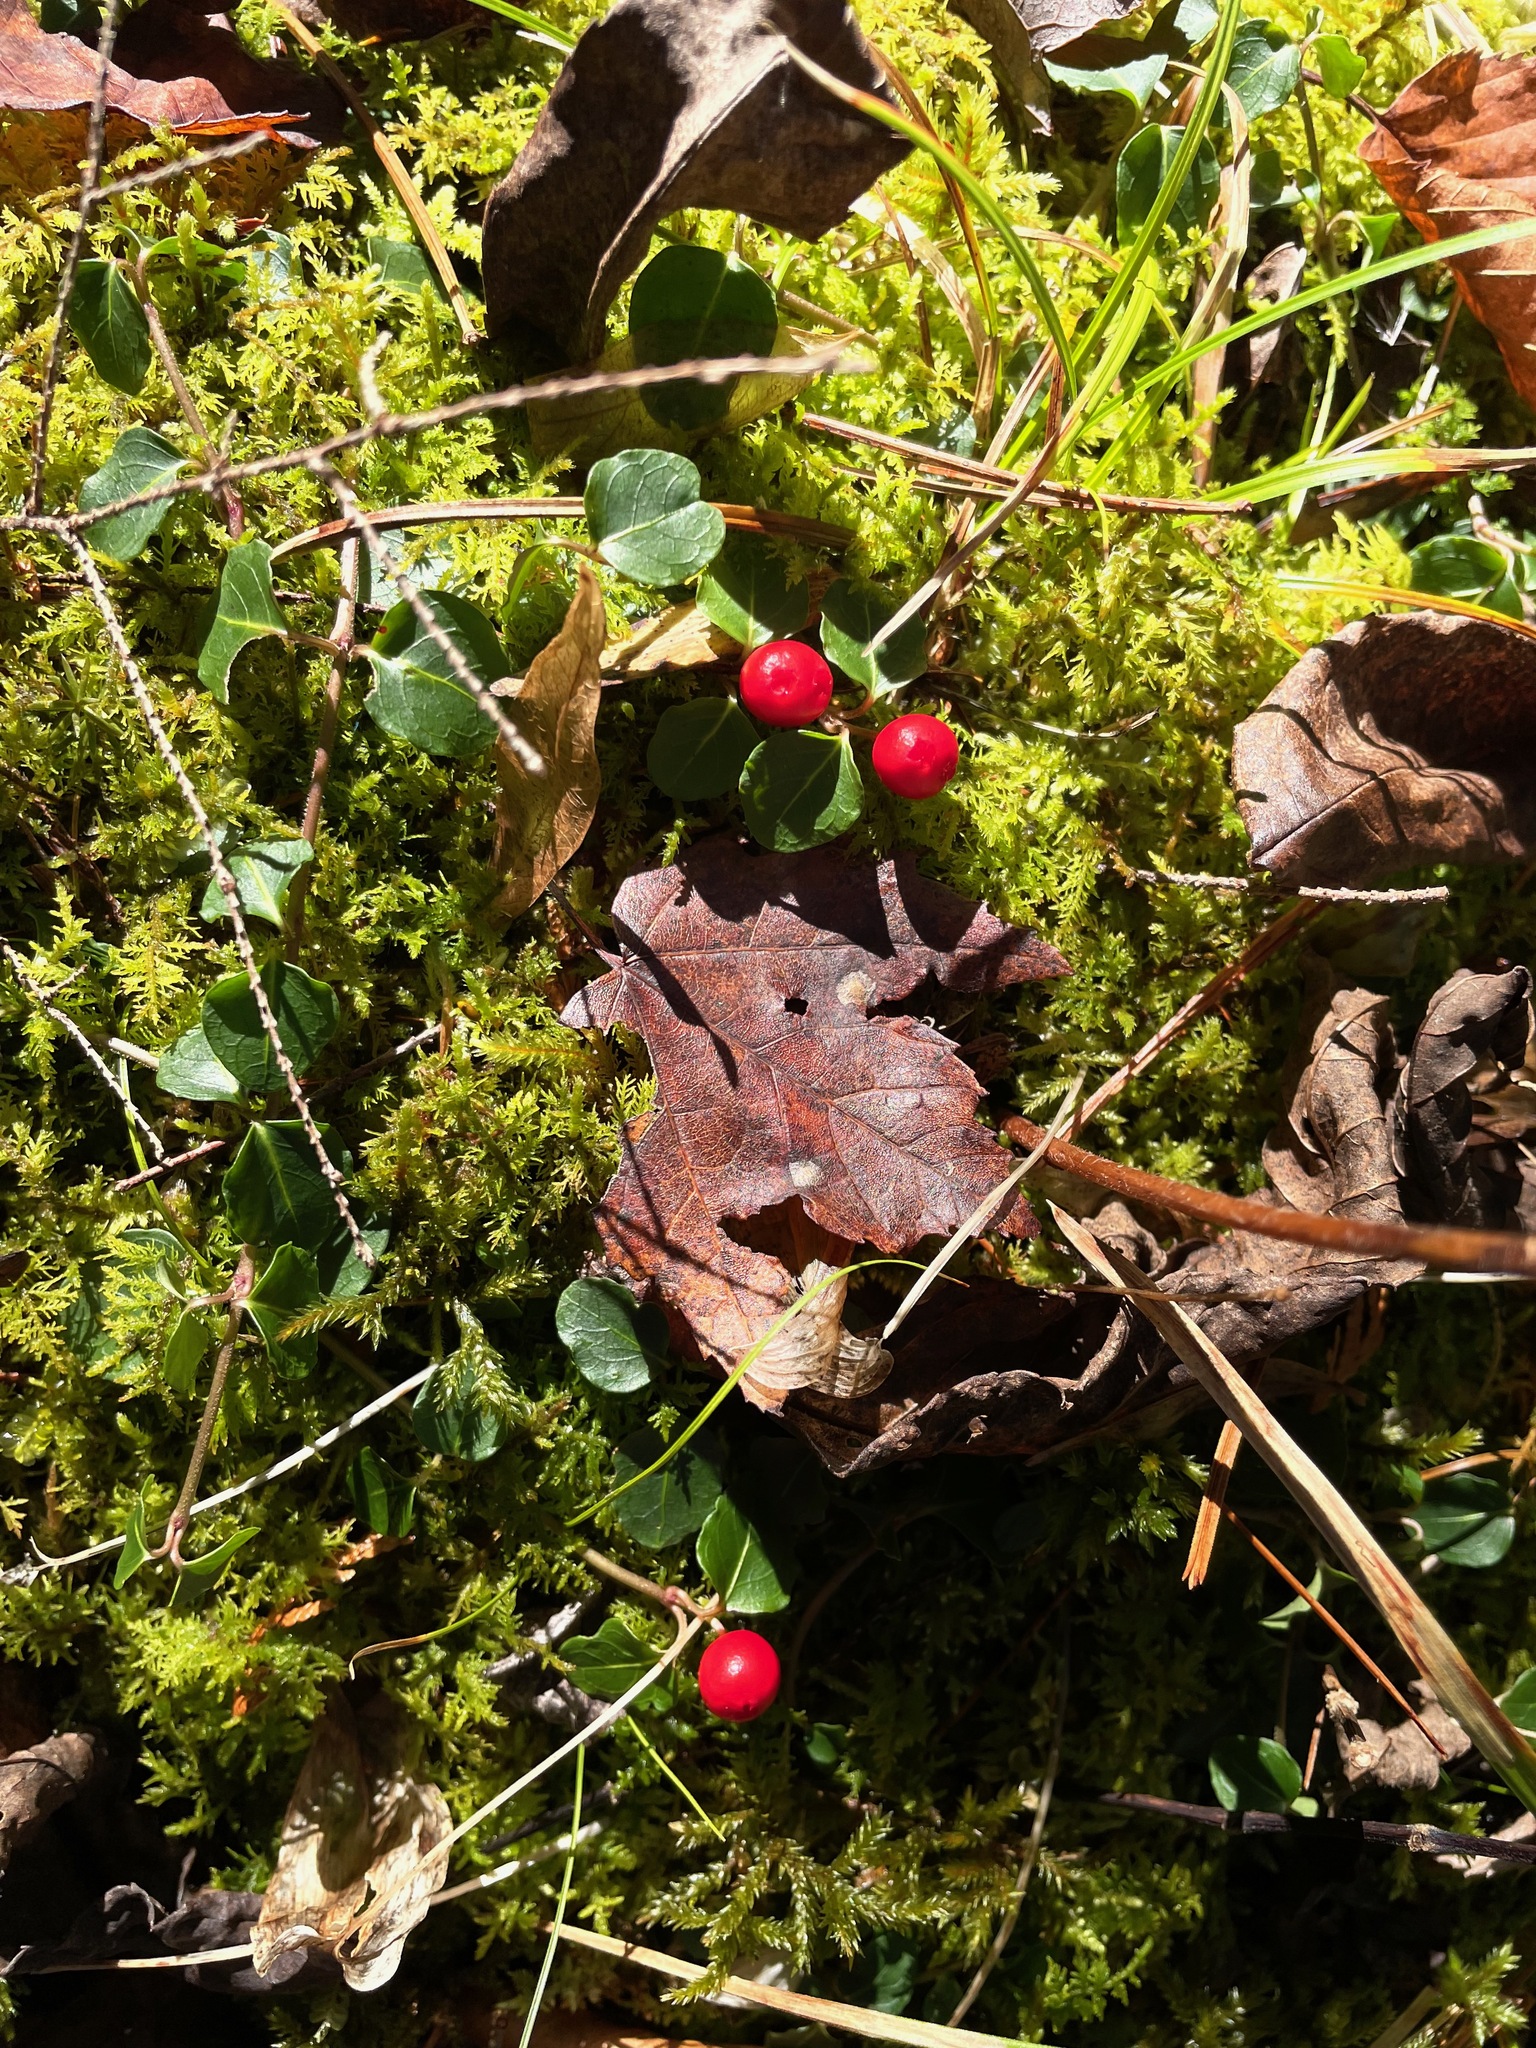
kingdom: Plantae
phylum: Tracheophyta
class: Magnoliopsida
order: Gentianales
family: Rubiaceae
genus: Mitchella
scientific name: Mitchella repens
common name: Partridge-berry
